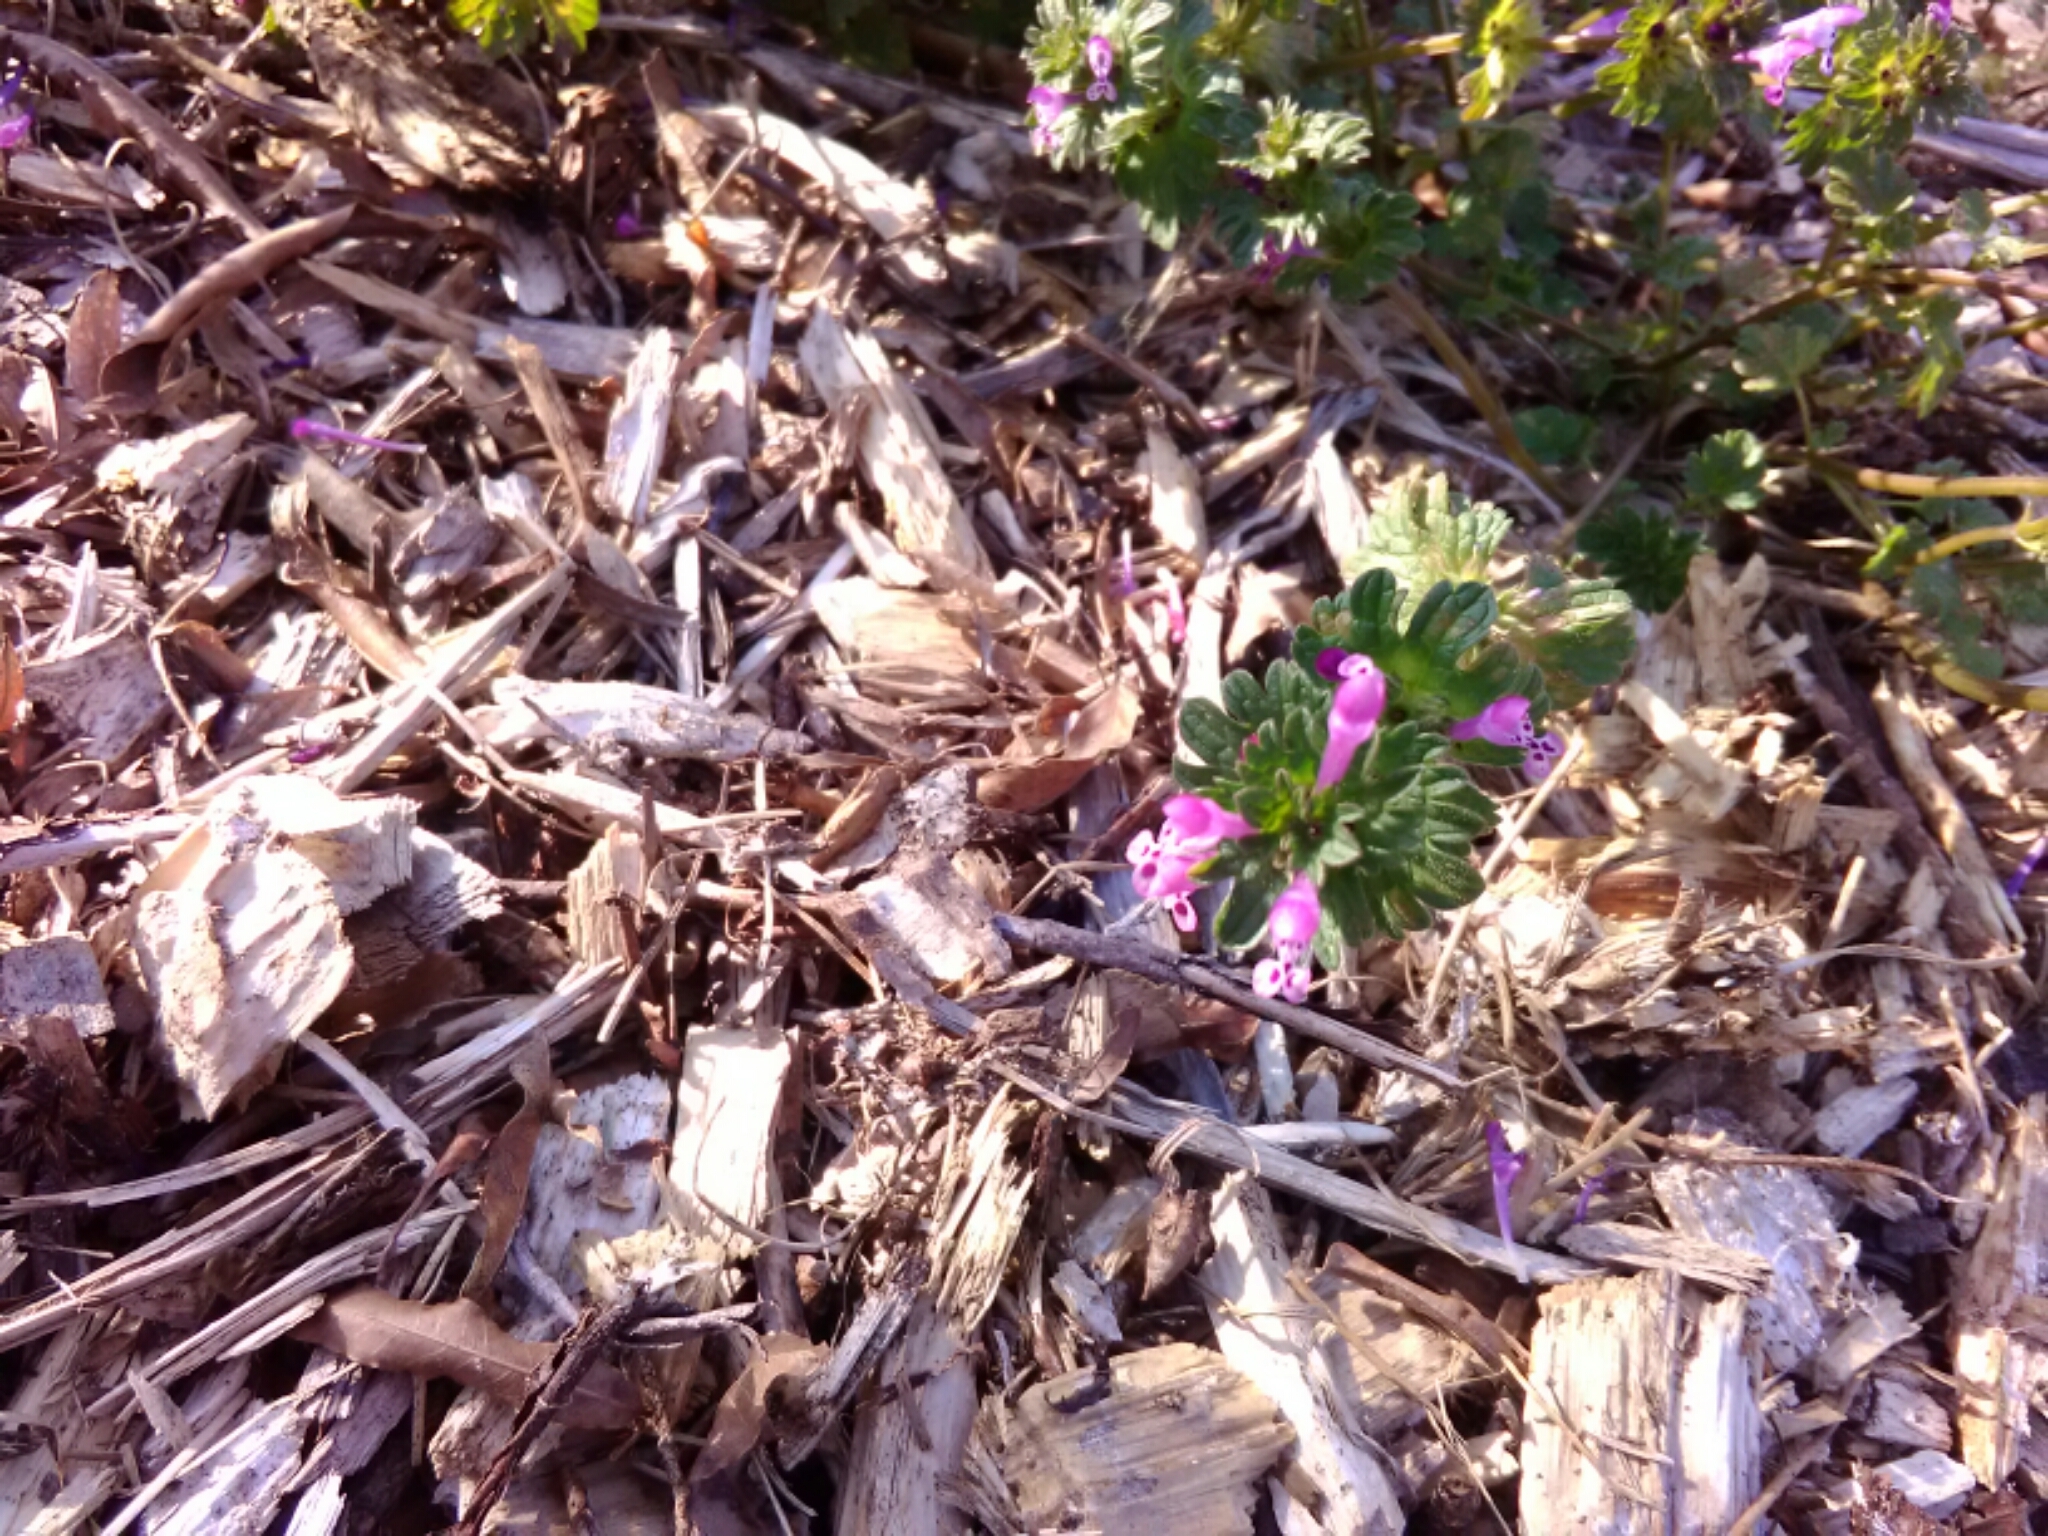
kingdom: Plantae
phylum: Tracheophyta
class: Magnoliopsida
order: Lamiales
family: Lamiaceae
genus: Lamium
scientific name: Lamium amplexicaule
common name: Henbit dead-nettle
